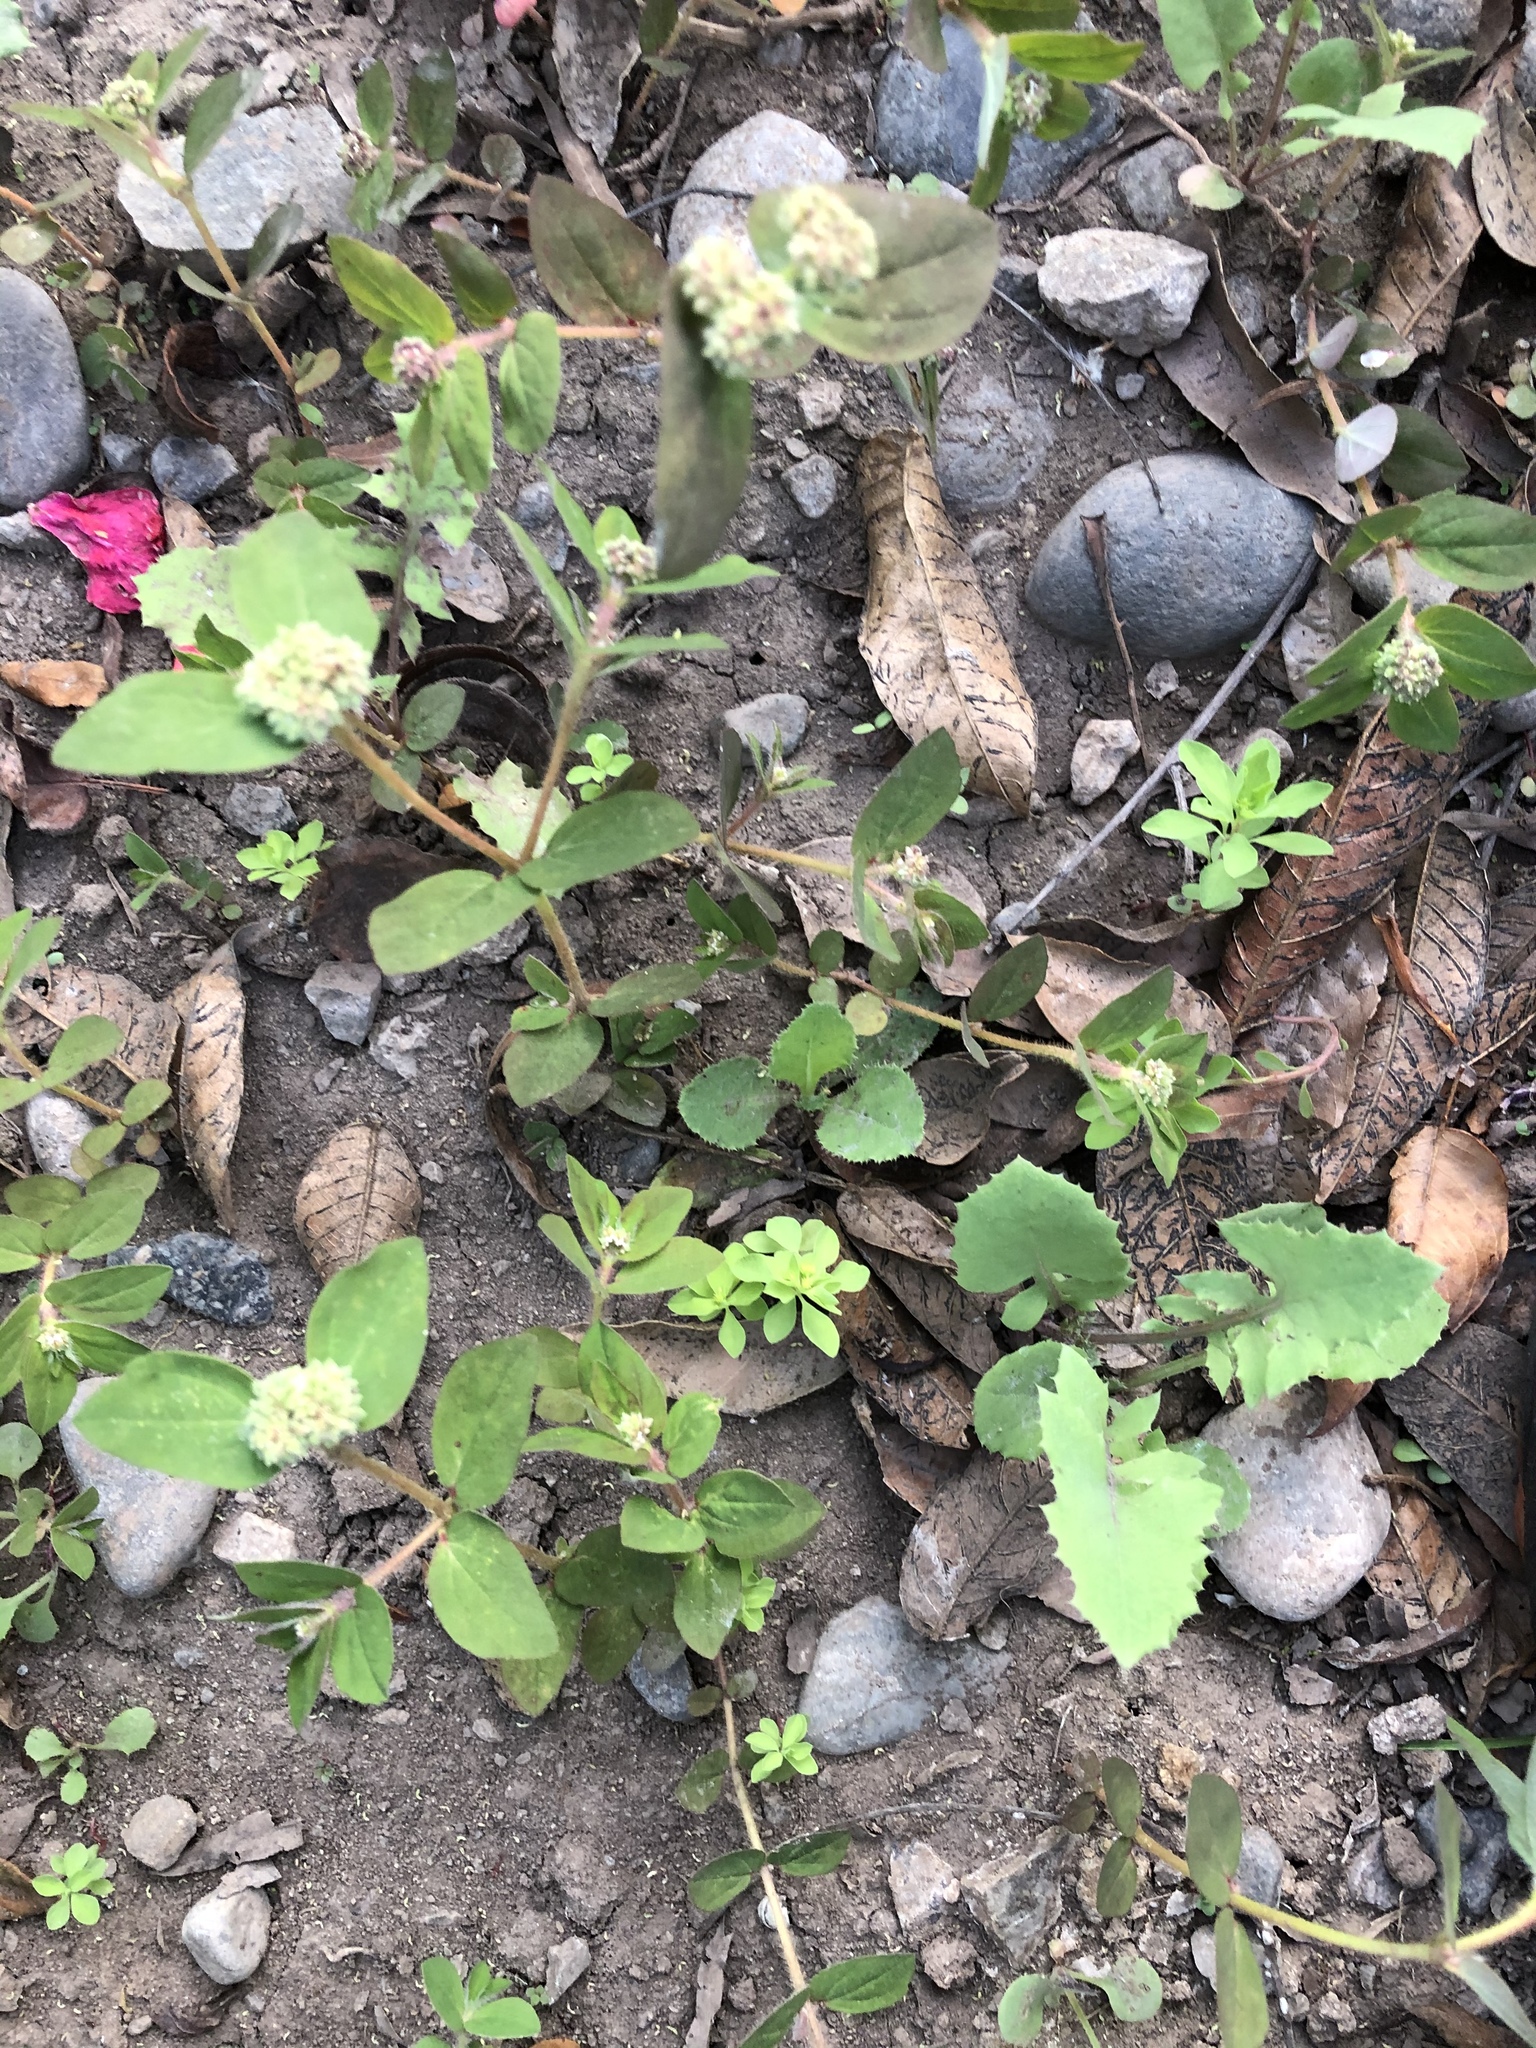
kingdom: Plantae
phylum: Tracheophyta
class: Magnoliopsida
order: Malpighiales
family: Euphorbiaceae
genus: Euphorbia
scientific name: Euphorbia ophthalmica
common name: Florida hammock sandmat
